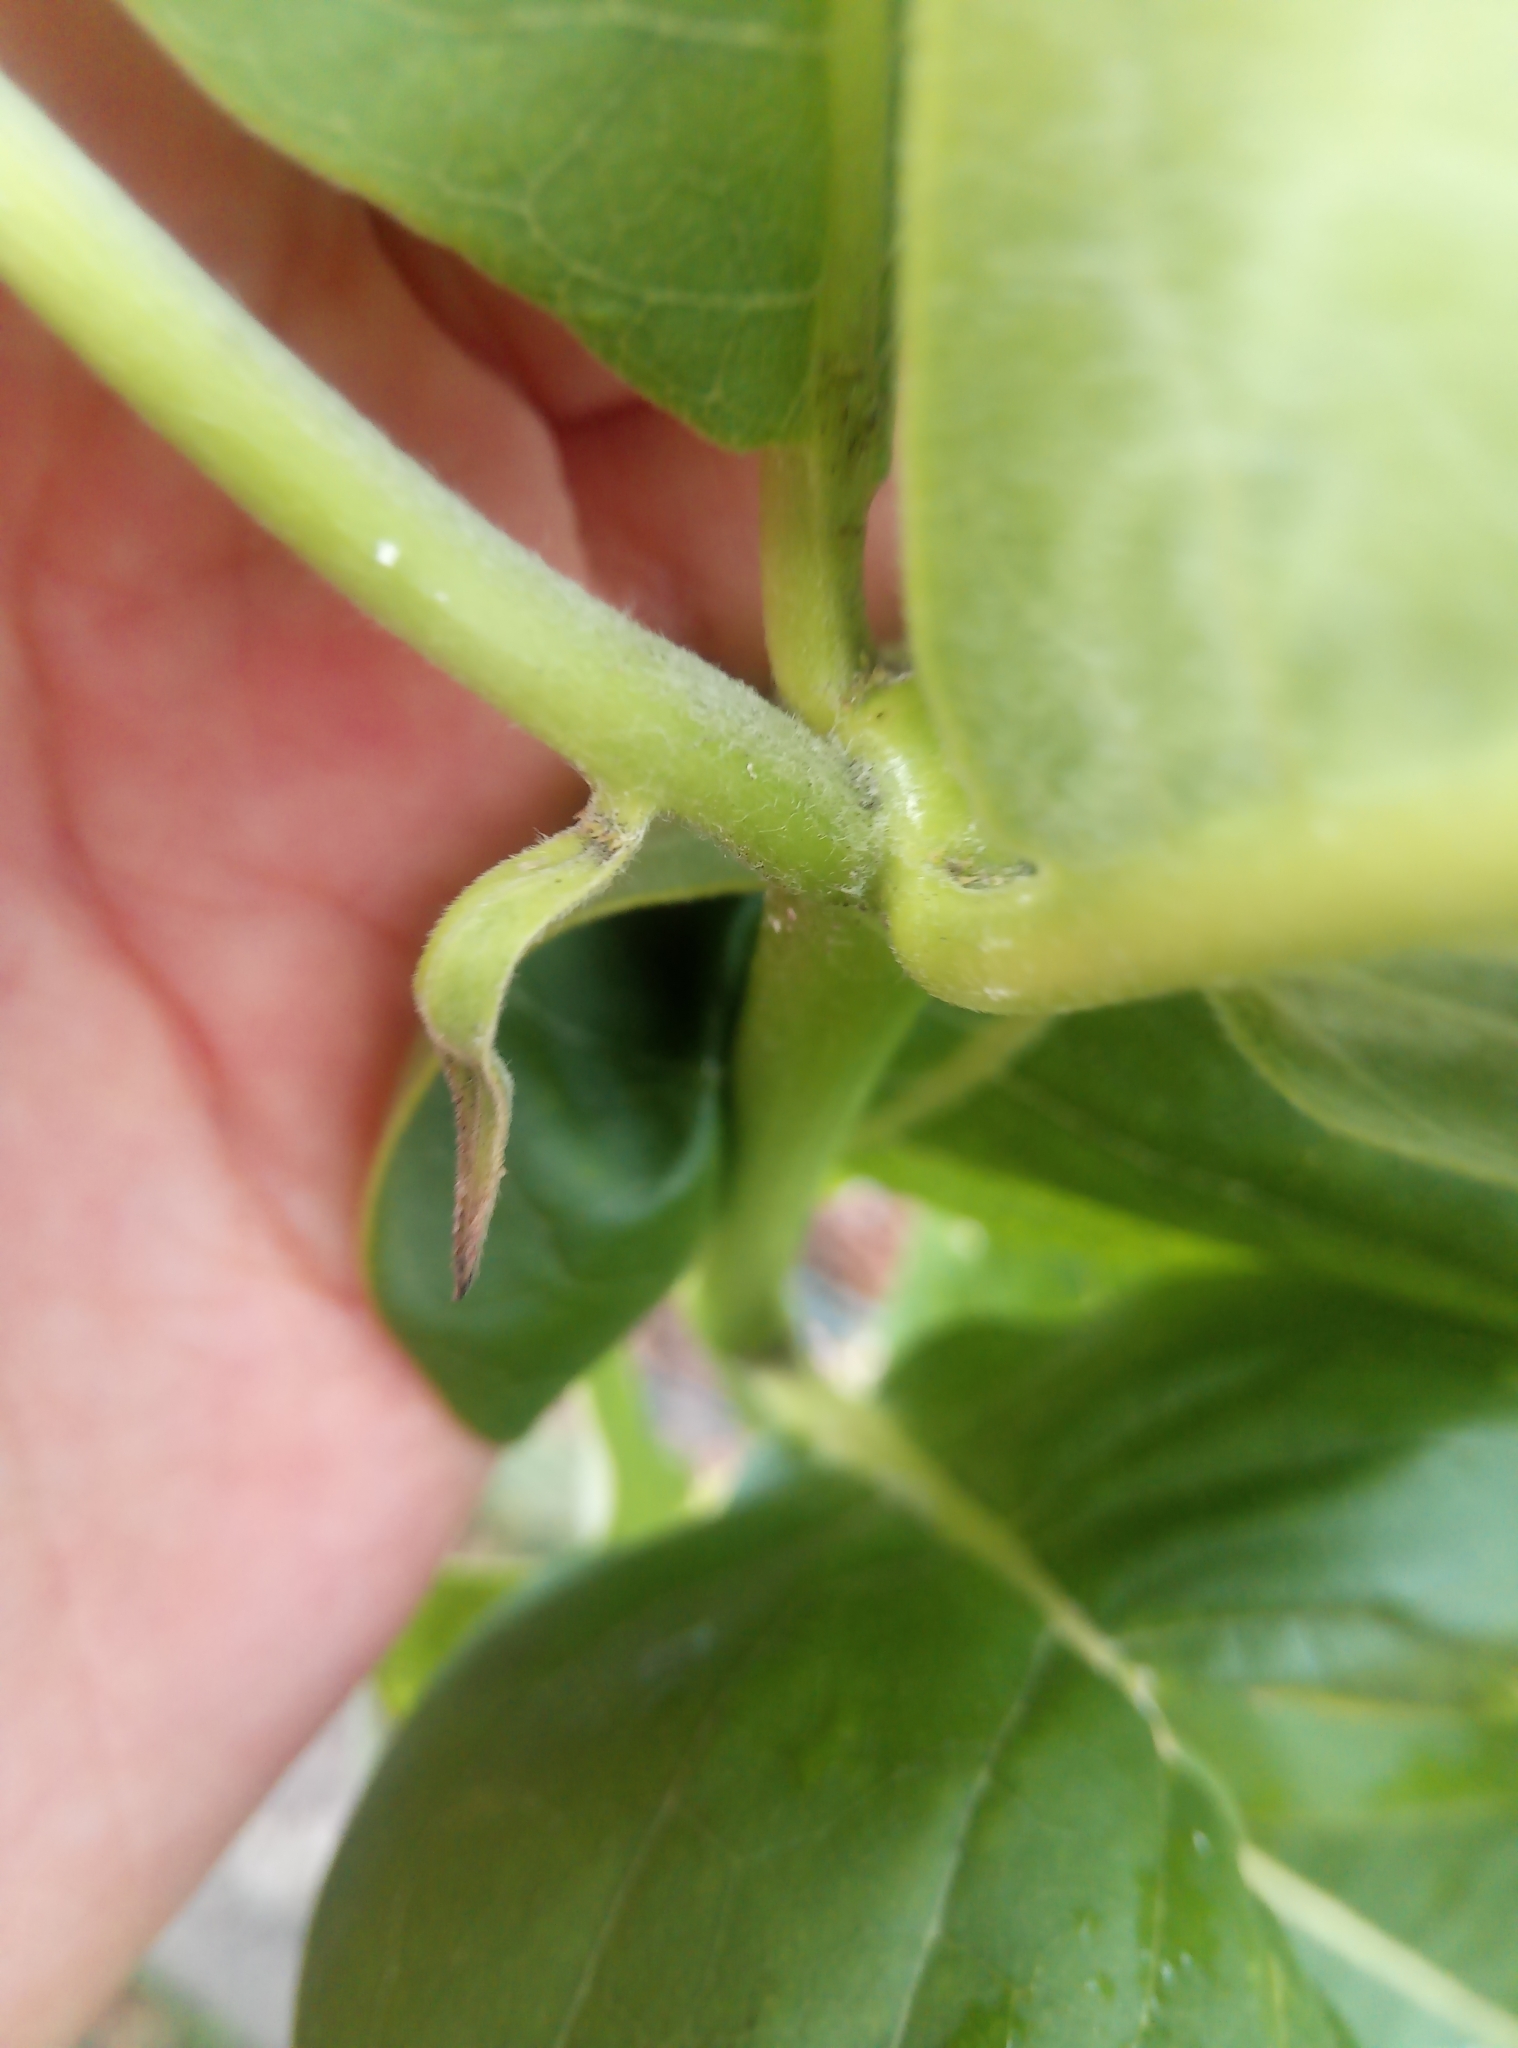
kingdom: Plantae
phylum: Tracheophyta
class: Magnoliopsida
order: Gentianales
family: Apocynaceae
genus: Asclepias
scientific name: Asclepias syriaca
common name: Common milkweed
